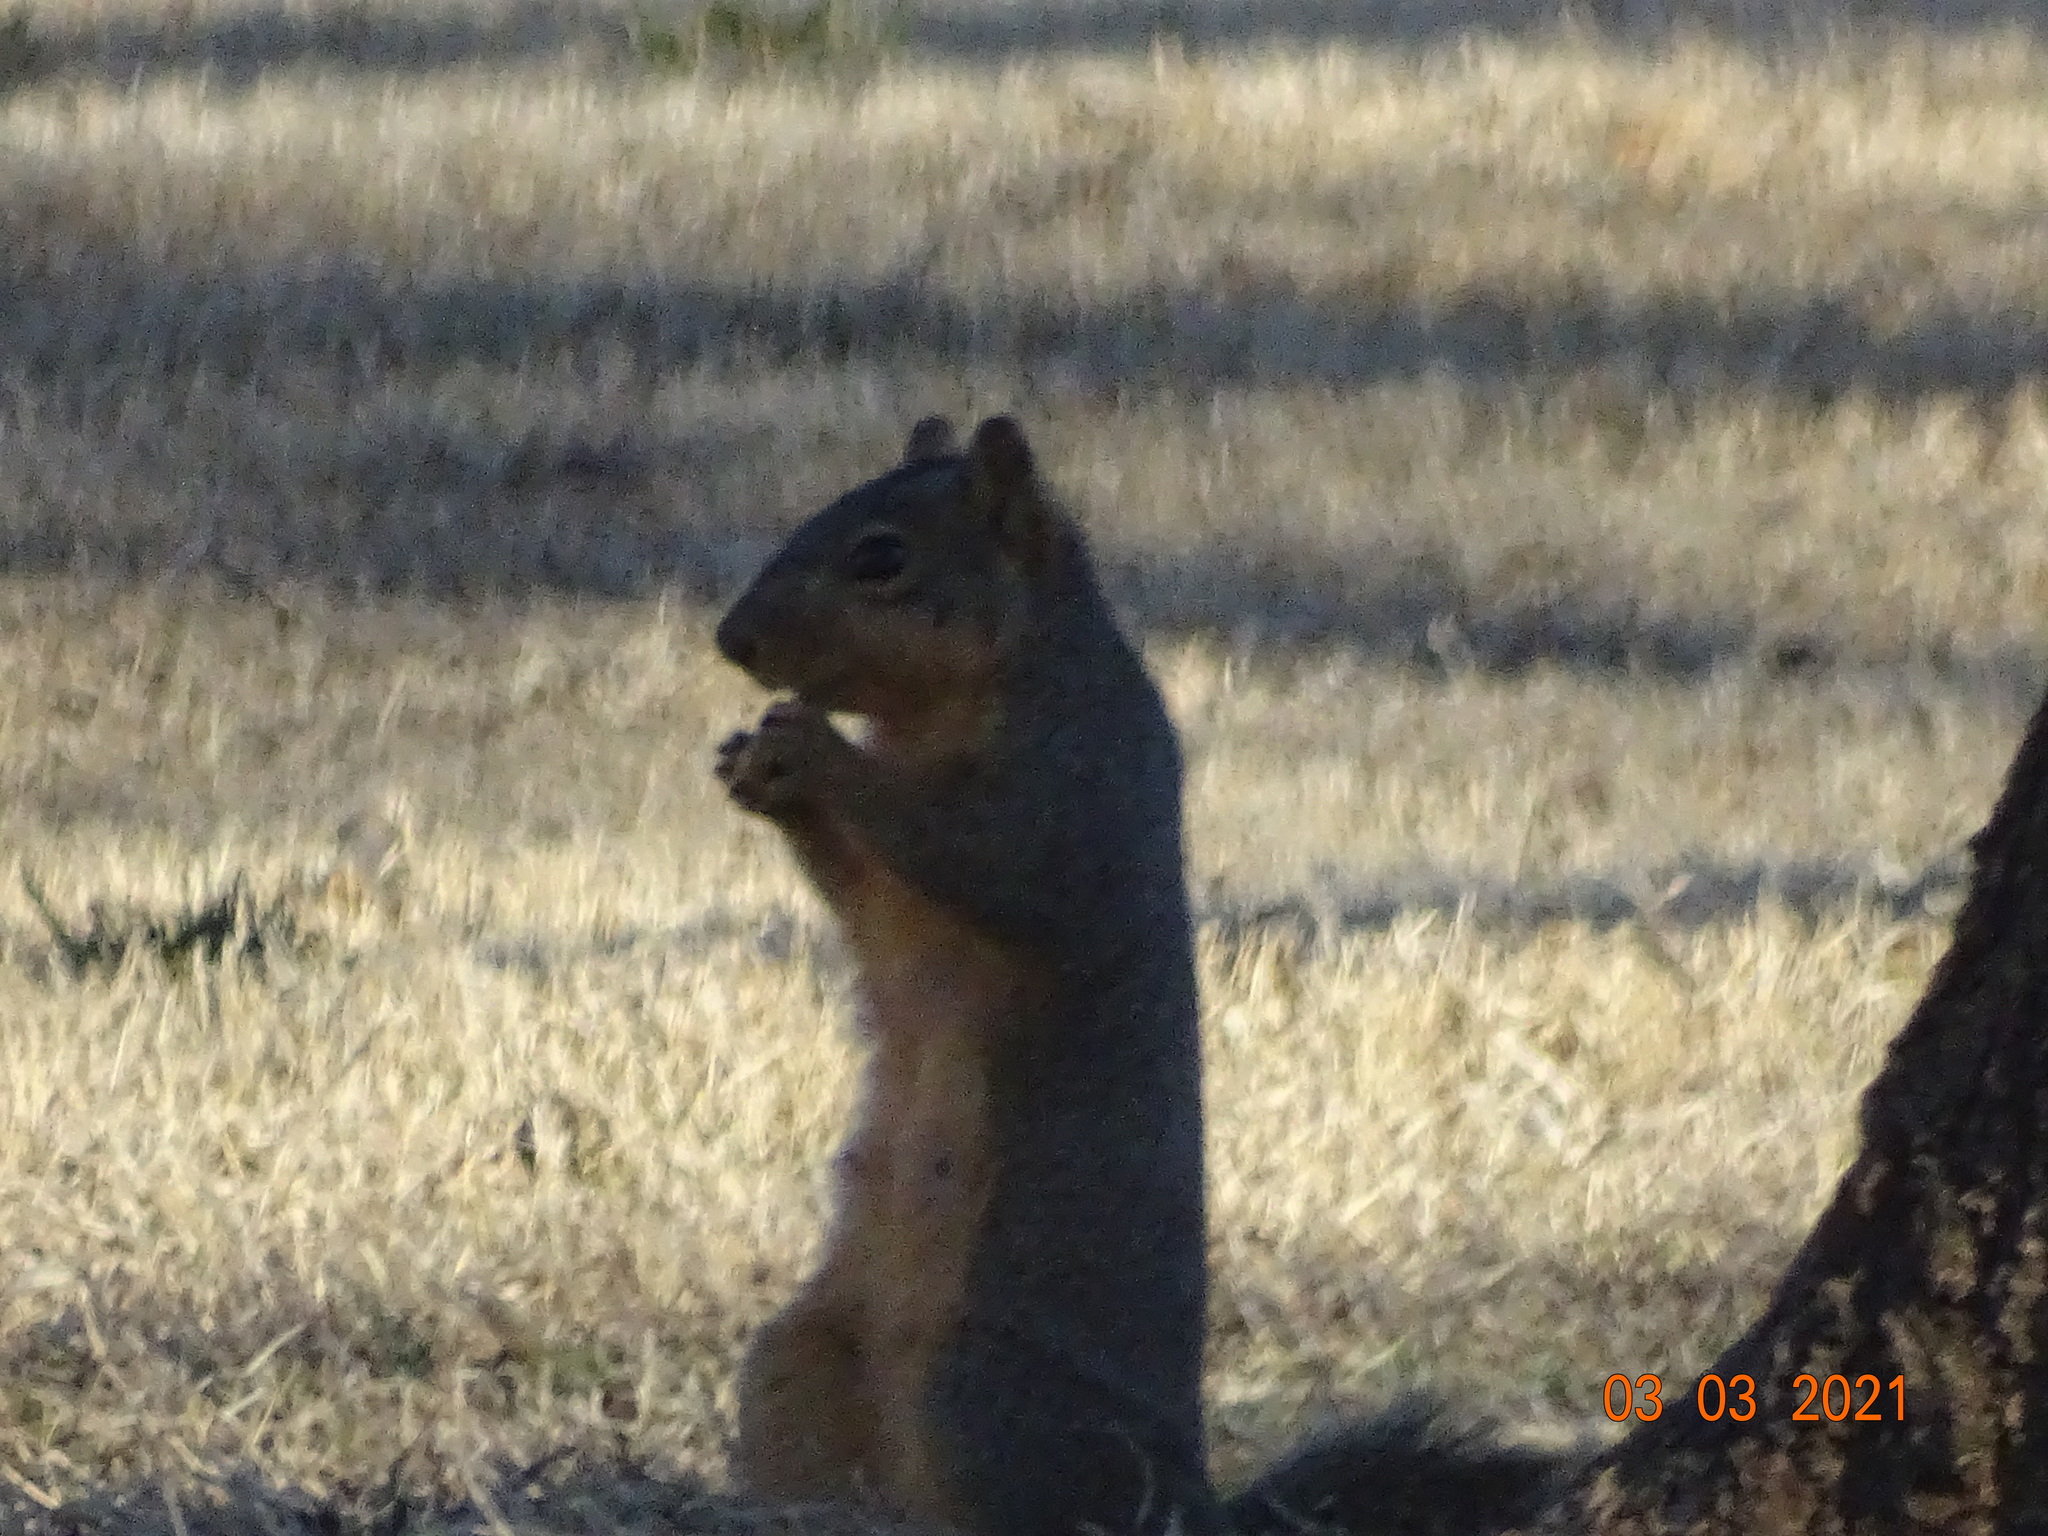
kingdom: Animalia
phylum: Chordata
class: Mammalia
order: Rodentia
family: Sciuridae
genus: Sciurus
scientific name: Sciurus niger
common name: Fox squirrel
